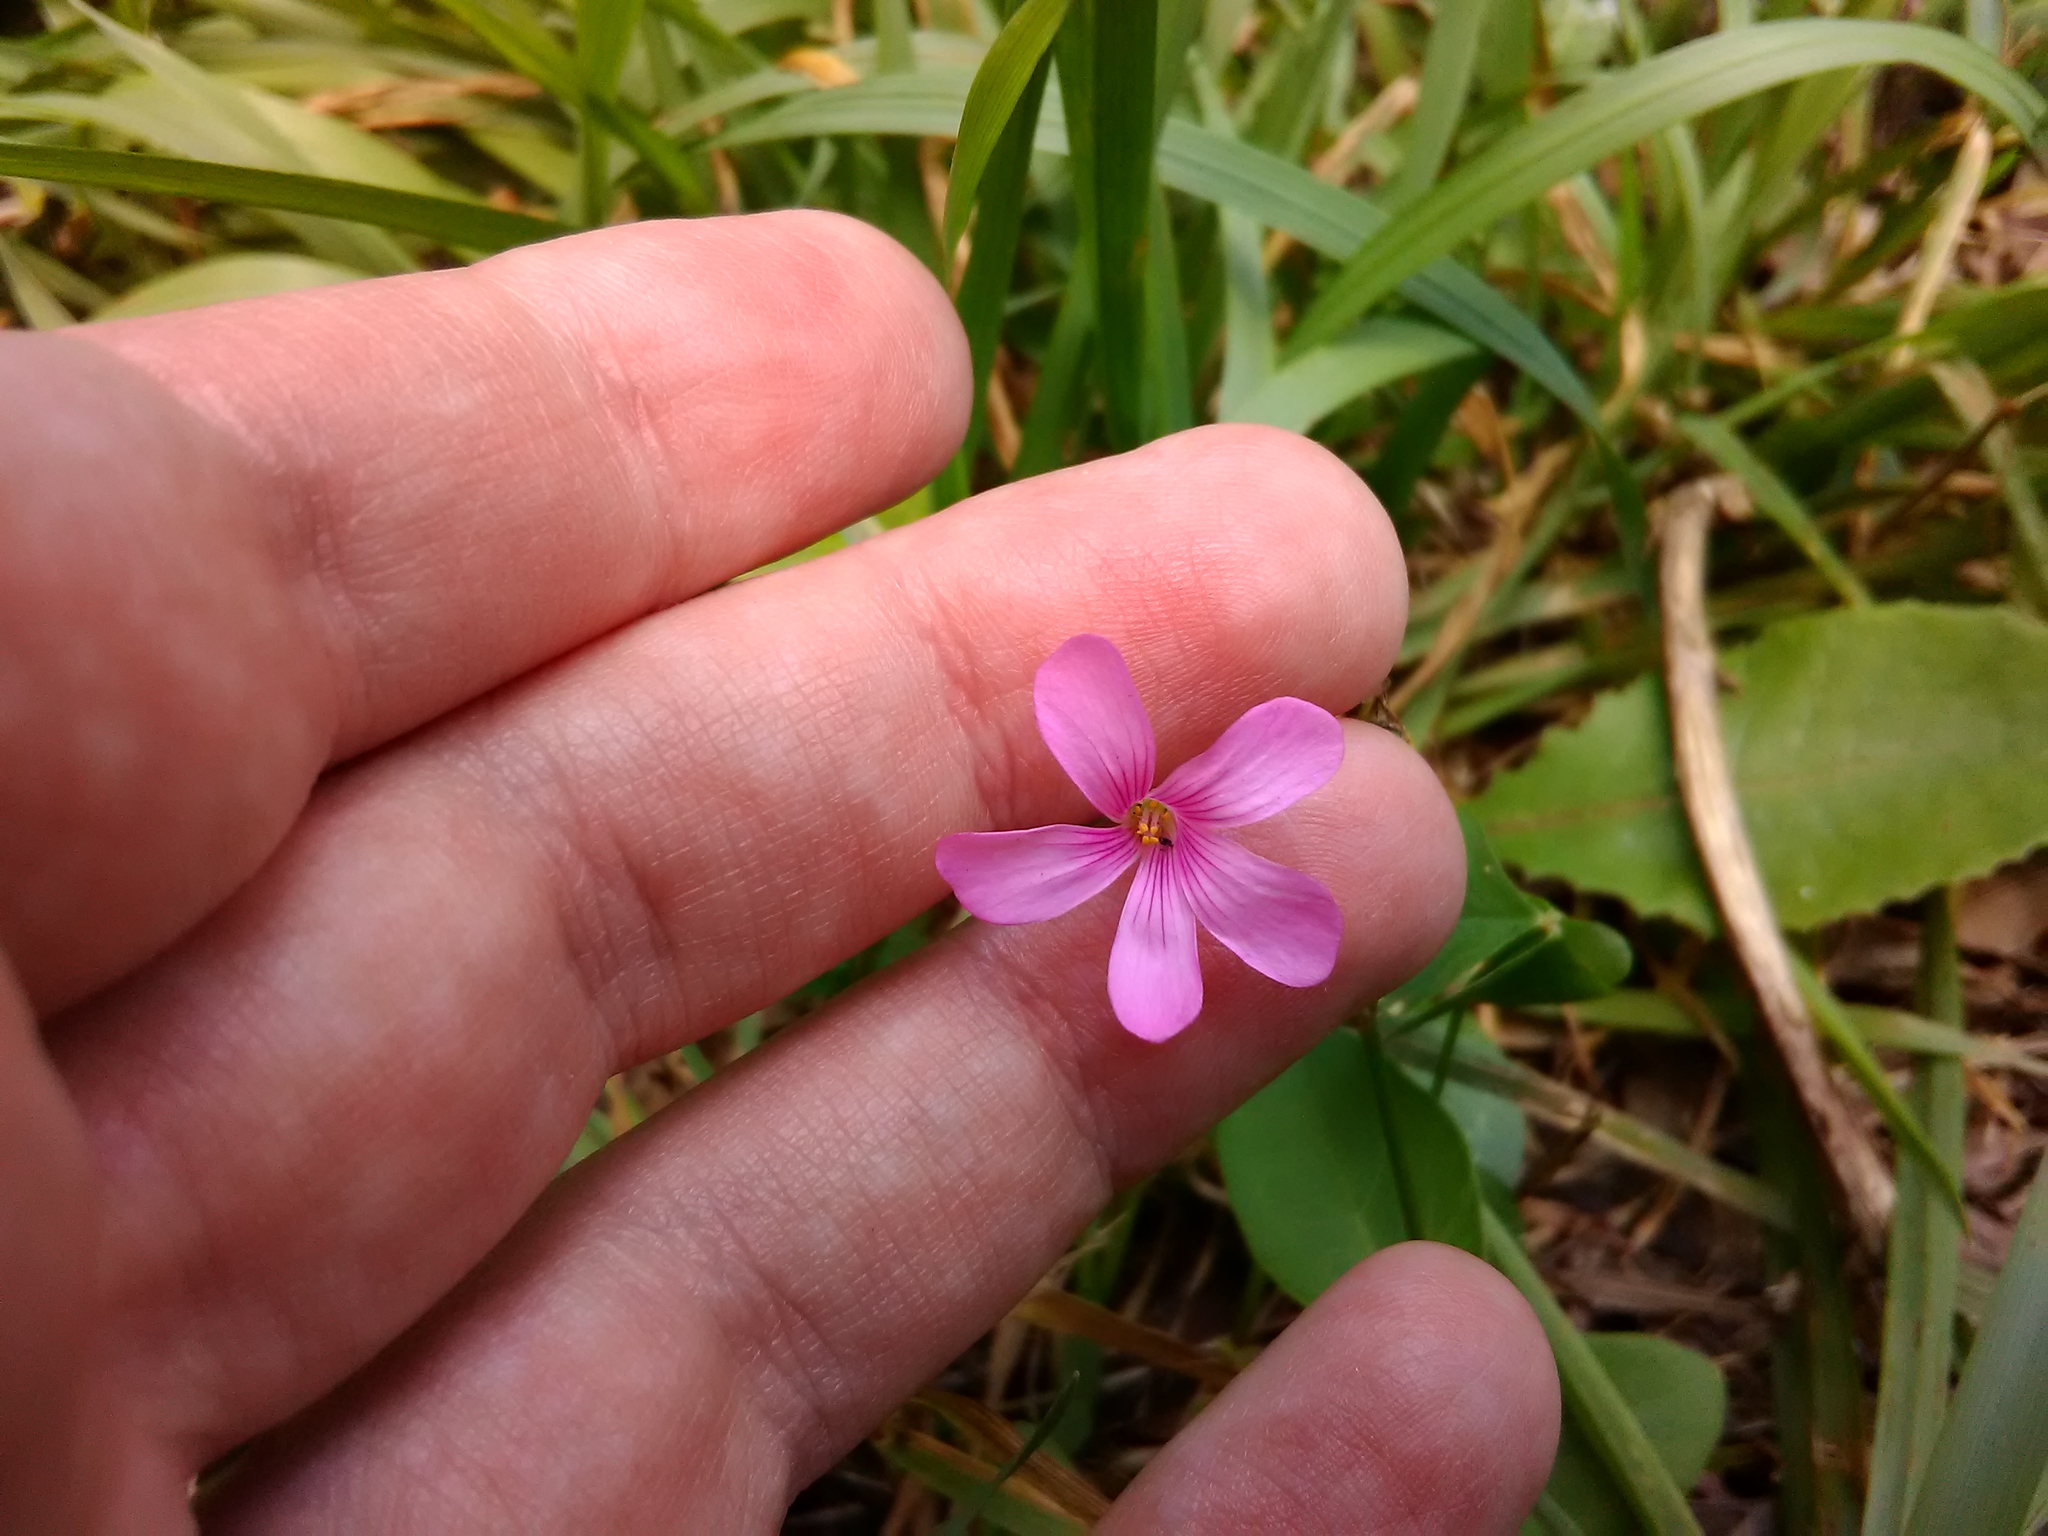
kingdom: Plantae
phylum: Tracheophyta
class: Magnoliopsida
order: Oxalidales
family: Oxalidaceae
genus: Oxalis
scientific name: Oxalis articulata
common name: Pink-sorrel
